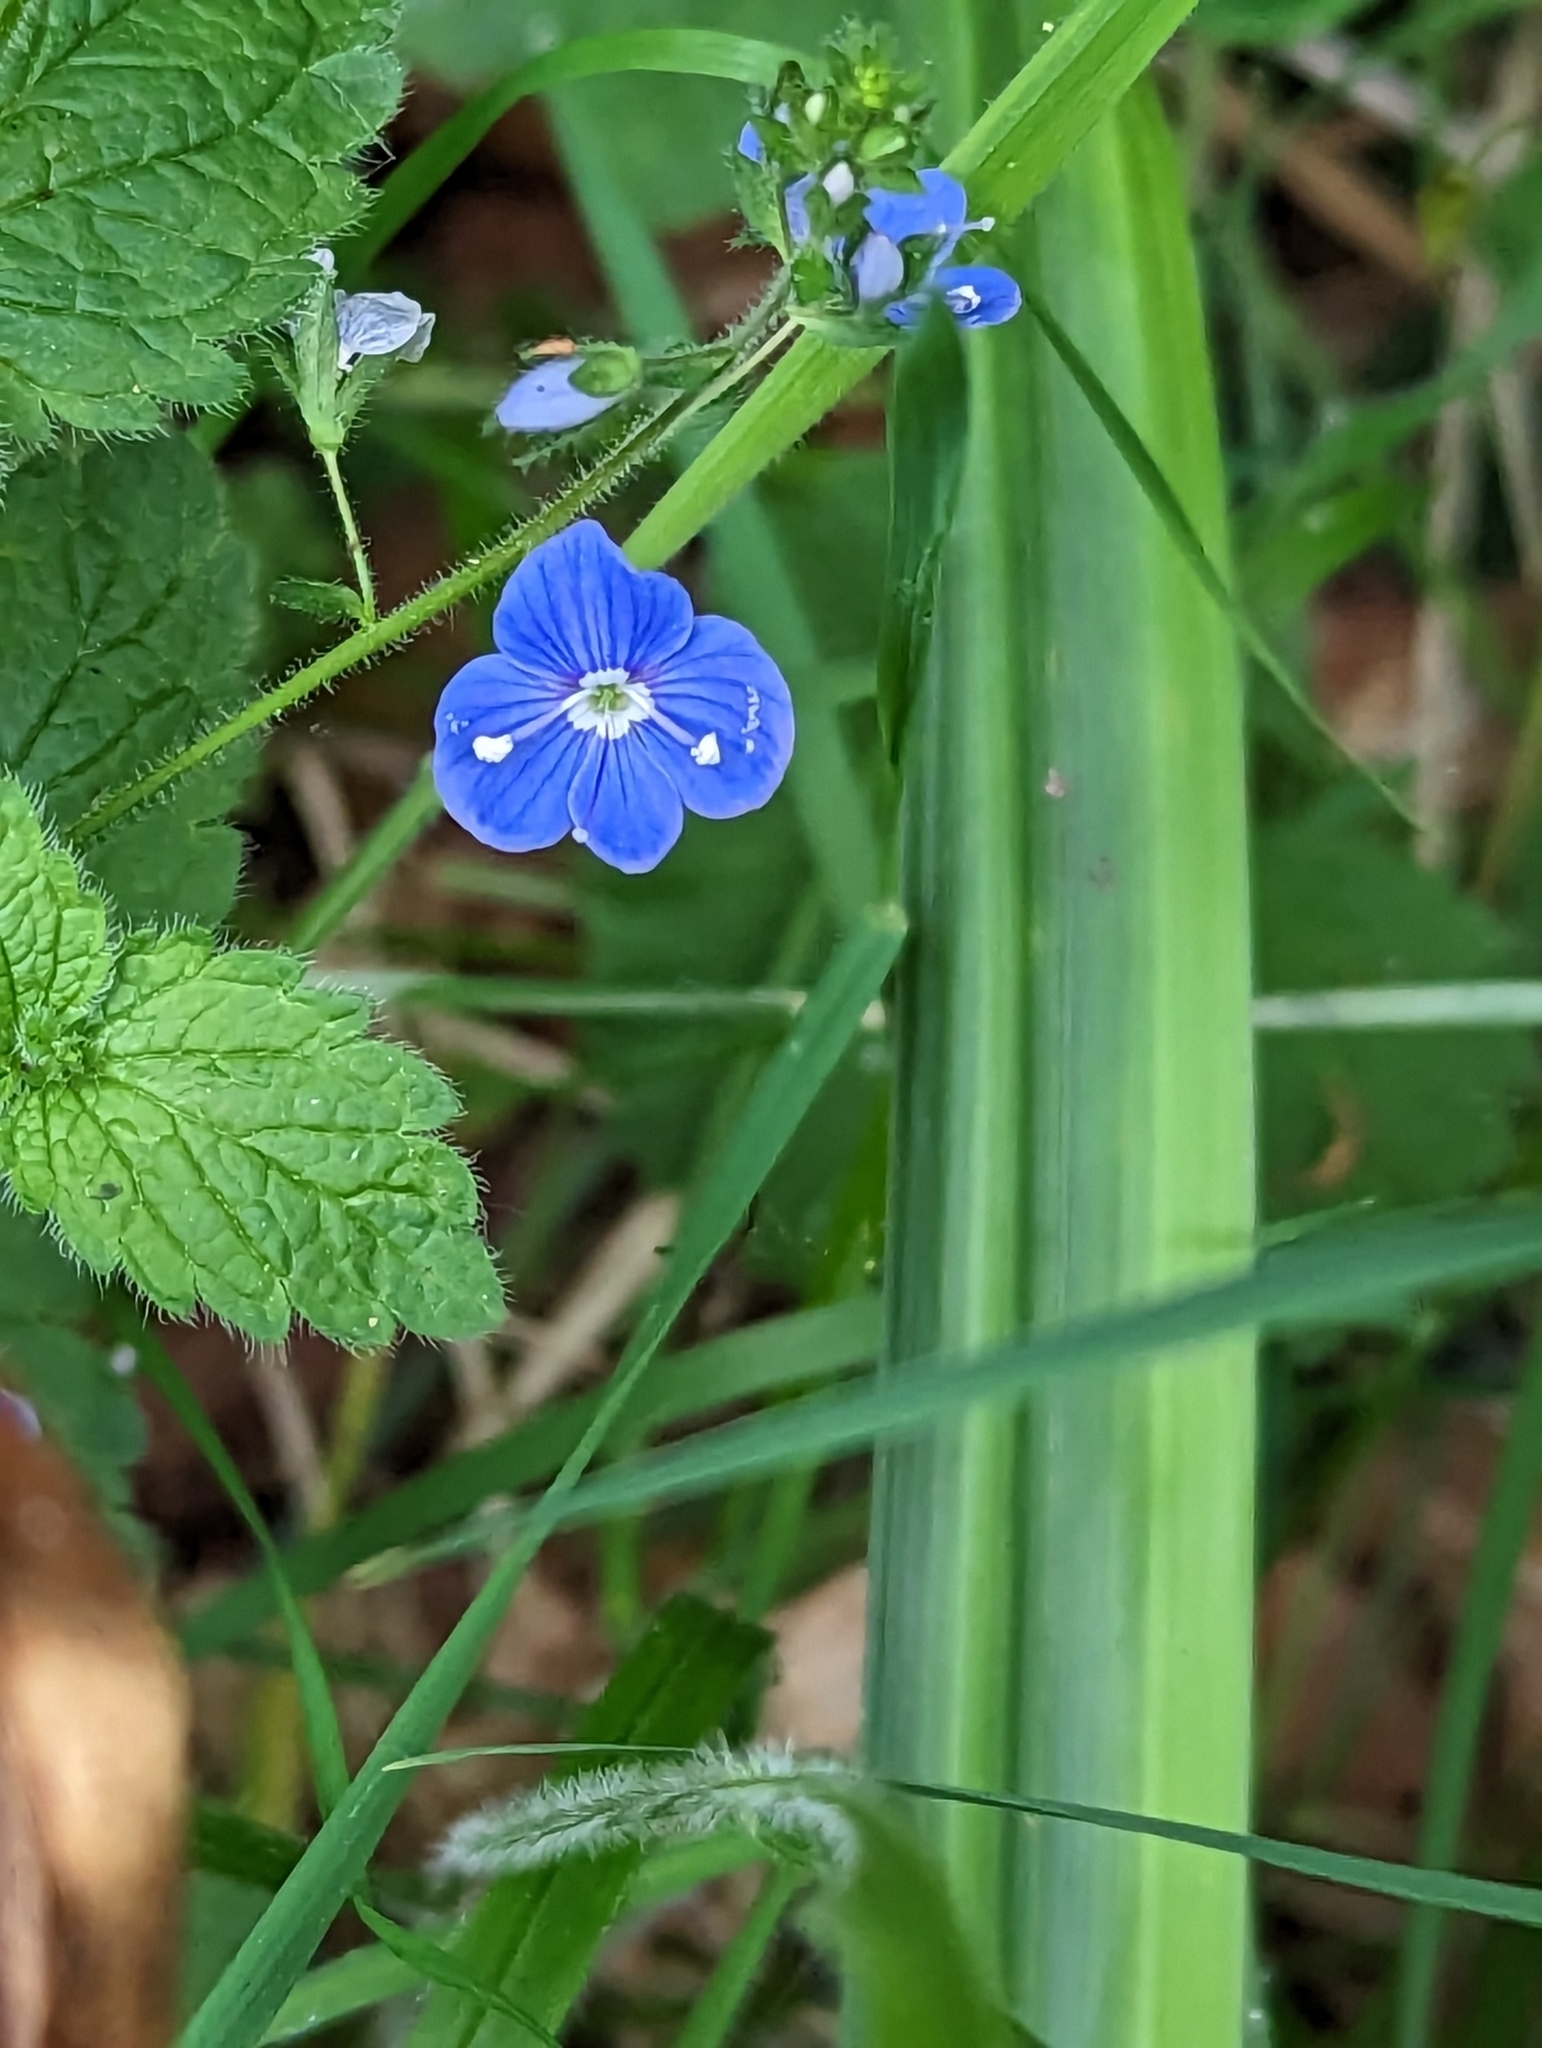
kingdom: Plantae
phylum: Tracheophyta
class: Magnoliopsida
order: Lamiales
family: Plantaginaceae
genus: Veronica
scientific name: Veronica chamaedrys
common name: Germander speedwell
